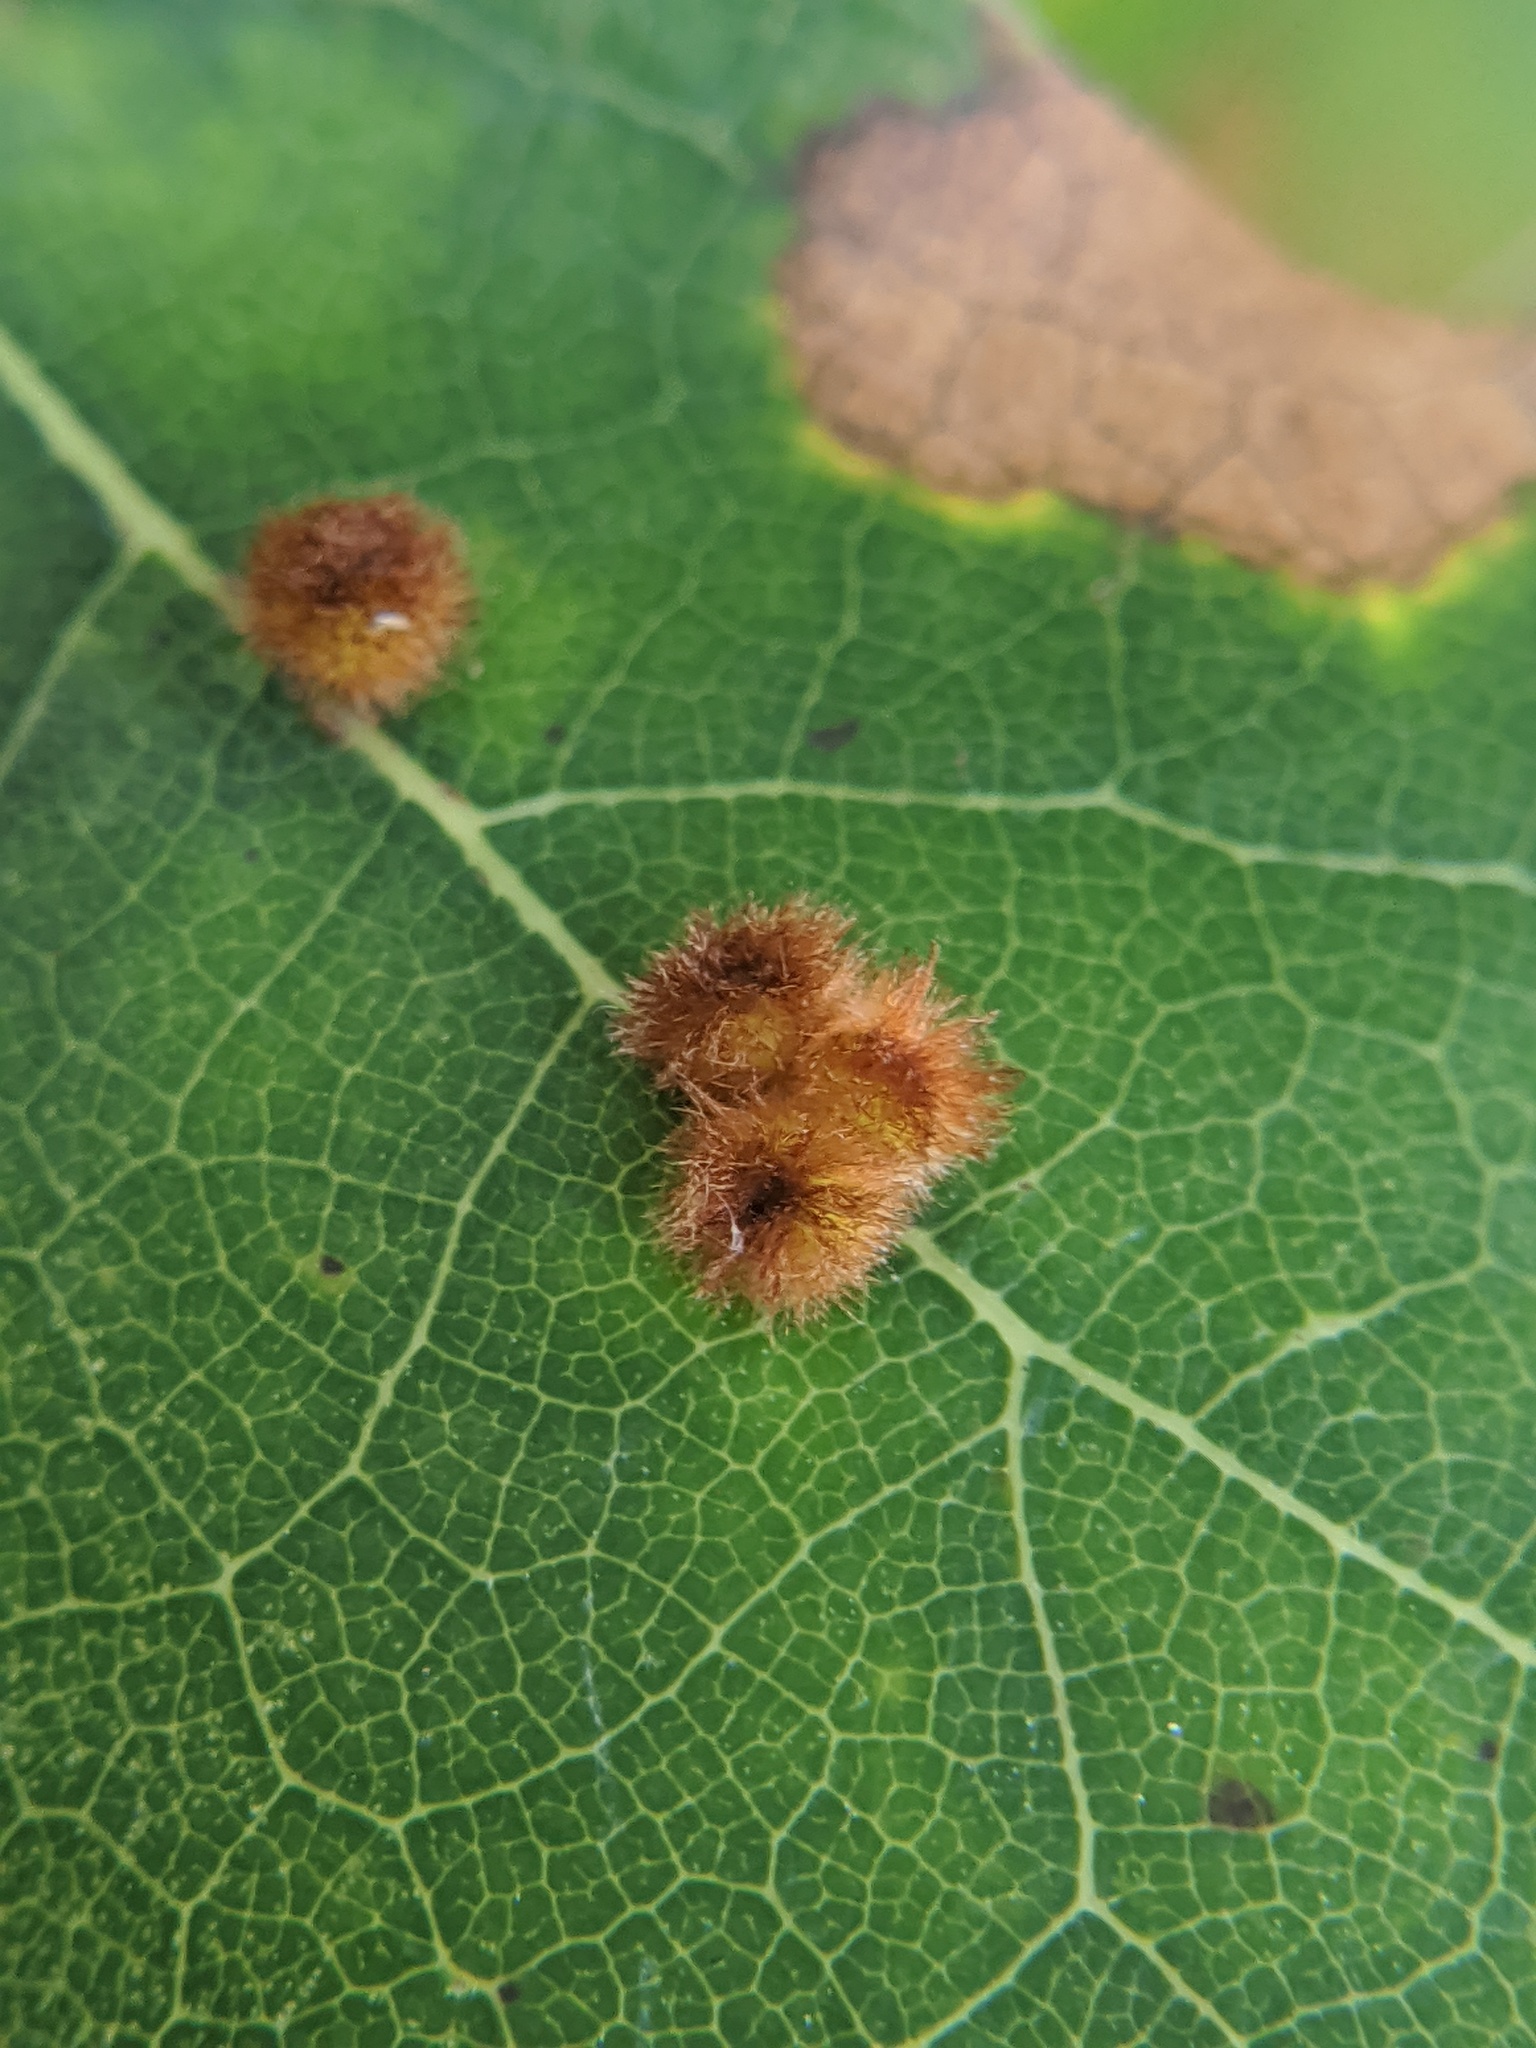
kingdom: Animalia
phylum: Arthropoda
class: Insecta
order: Hymenoptera
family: Cynipidae
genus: Callirhytis
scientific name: Callirhytis
